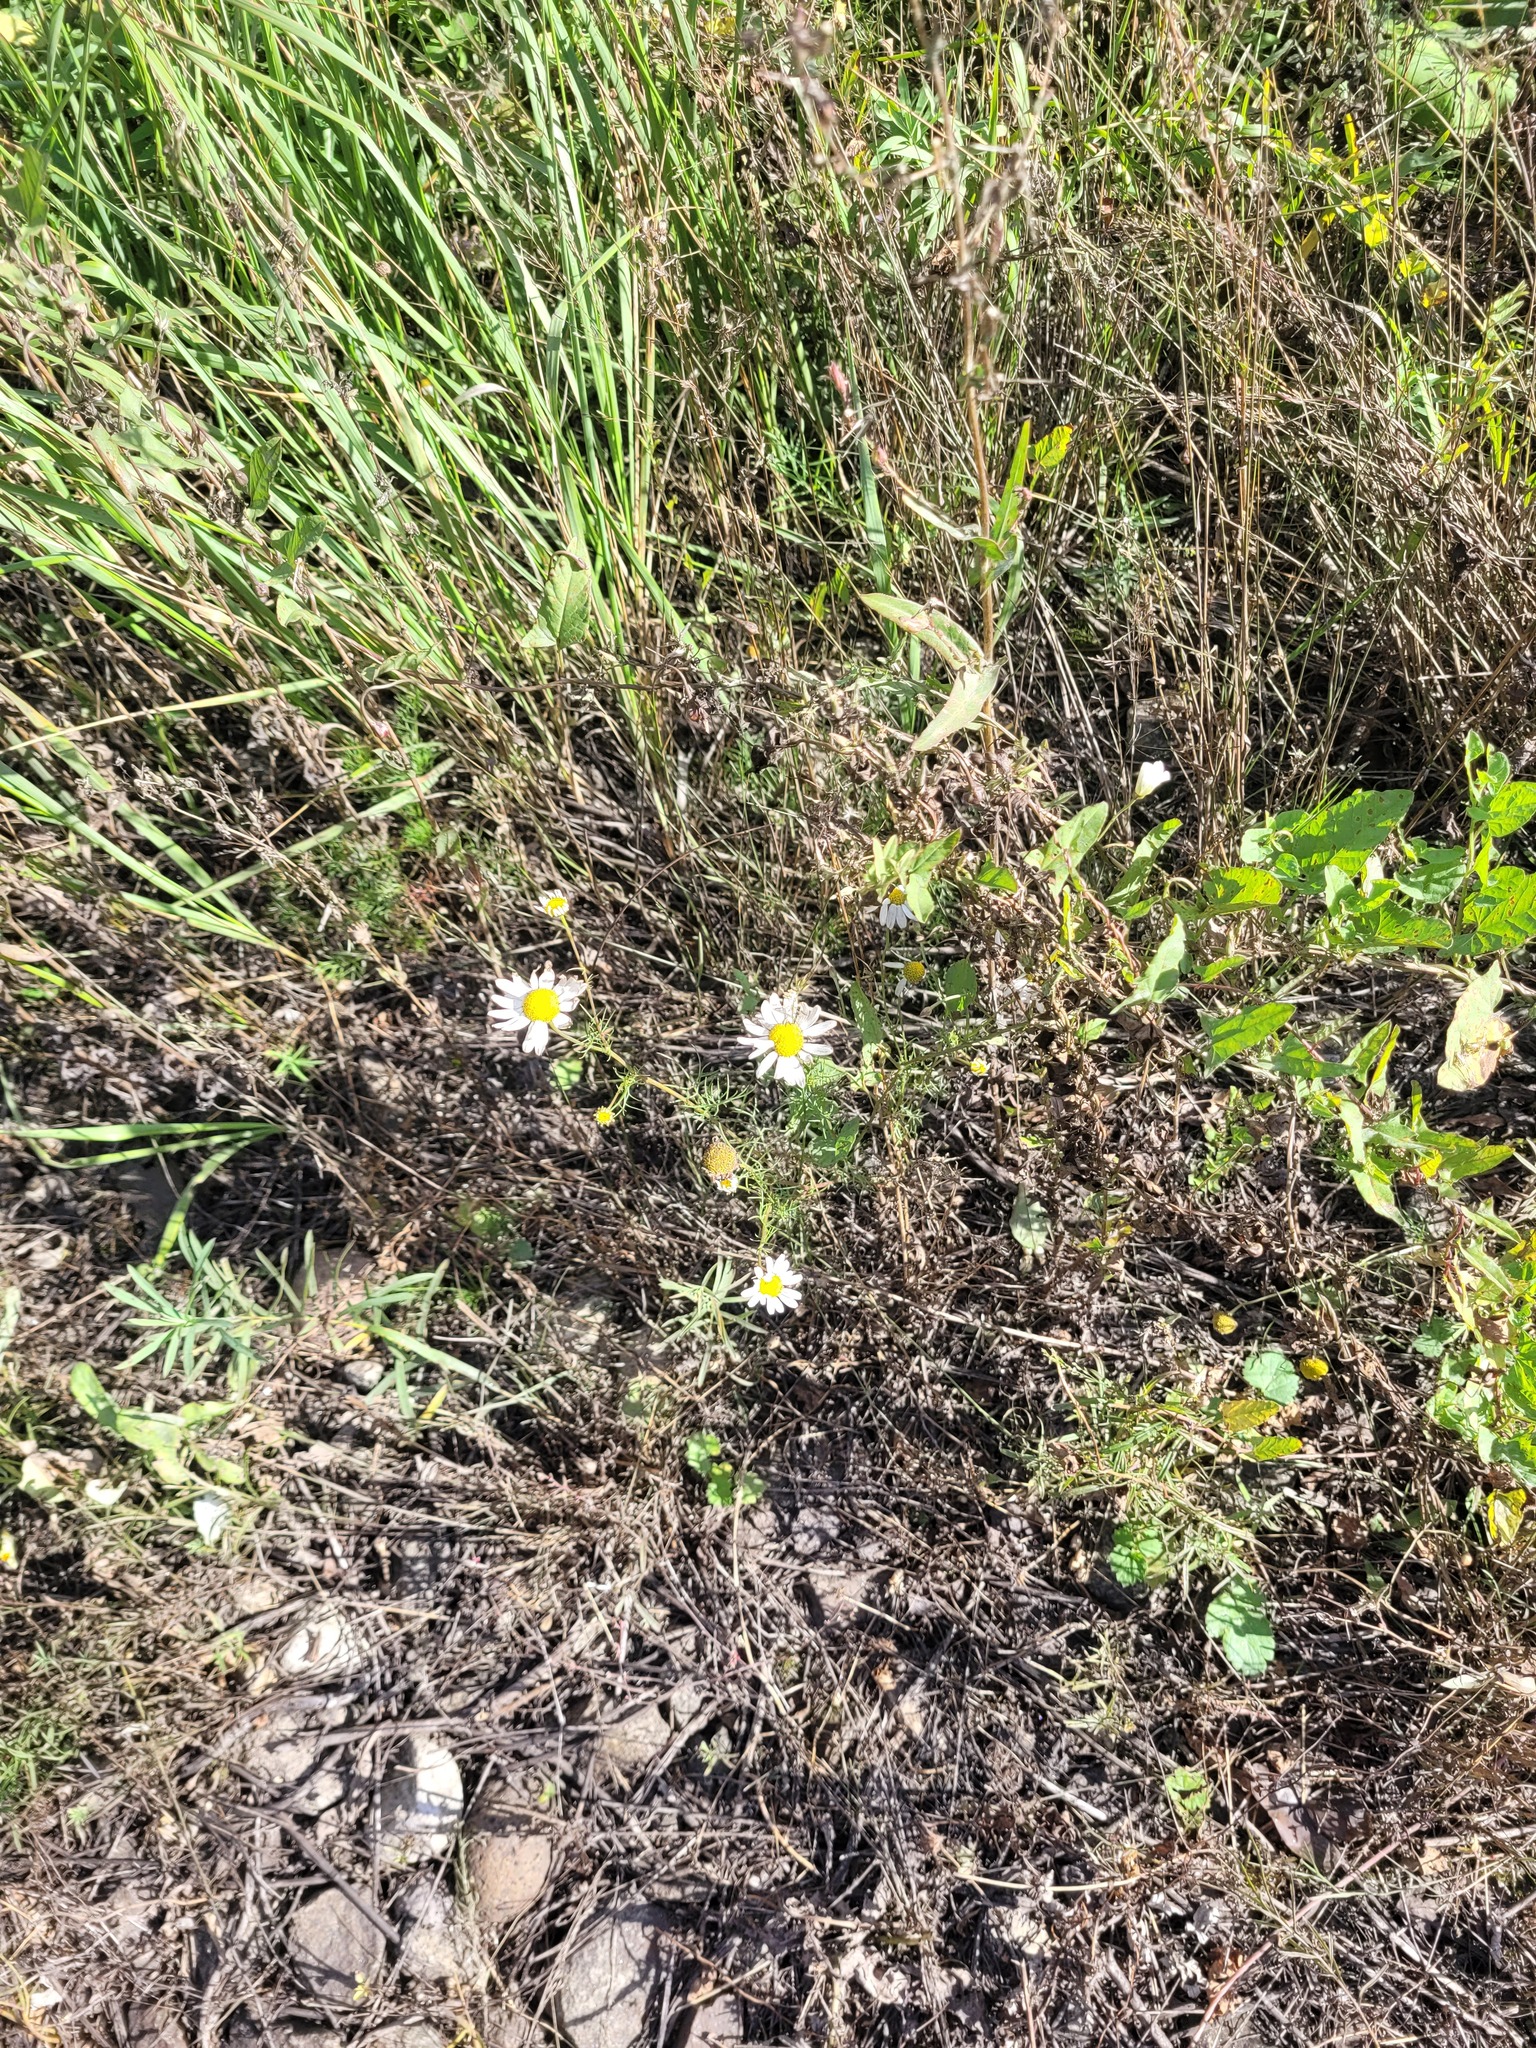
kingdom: Plantae
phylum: Tracheophyta
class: Magnoliopsida
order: Asterales
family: Asteraceae
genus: Tripleurospermum
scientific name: Tripleurospermum inodorum
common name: Scentless mayweed
